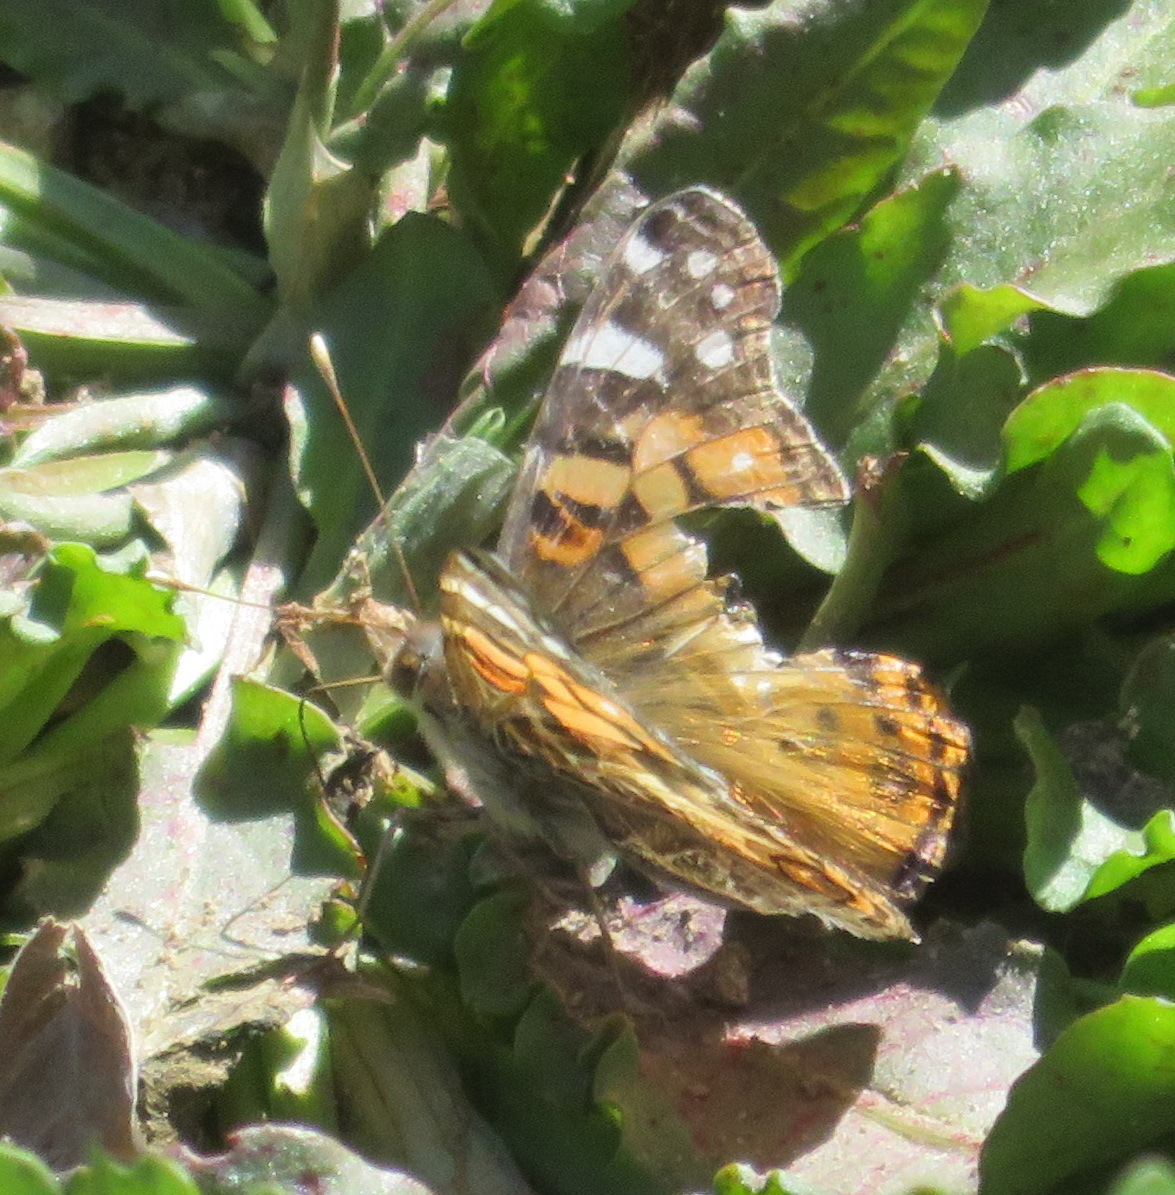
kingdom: Animalia
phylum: Arthropoda
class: Insecta
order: Lepidoptera
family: Nymphalidae
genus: Vanessa
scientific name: Vanessa virginiensis
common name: American lady
